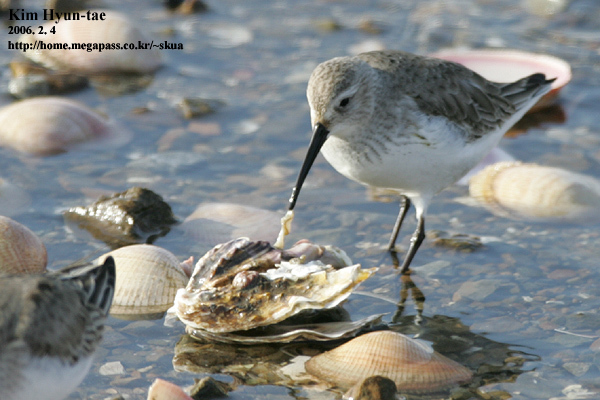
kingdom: Animalia
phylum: Chordata
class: Aves
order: Charadriiformes
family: Scolopacidae
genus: Calidris
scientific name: Calidris alpina
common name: Dunlin
